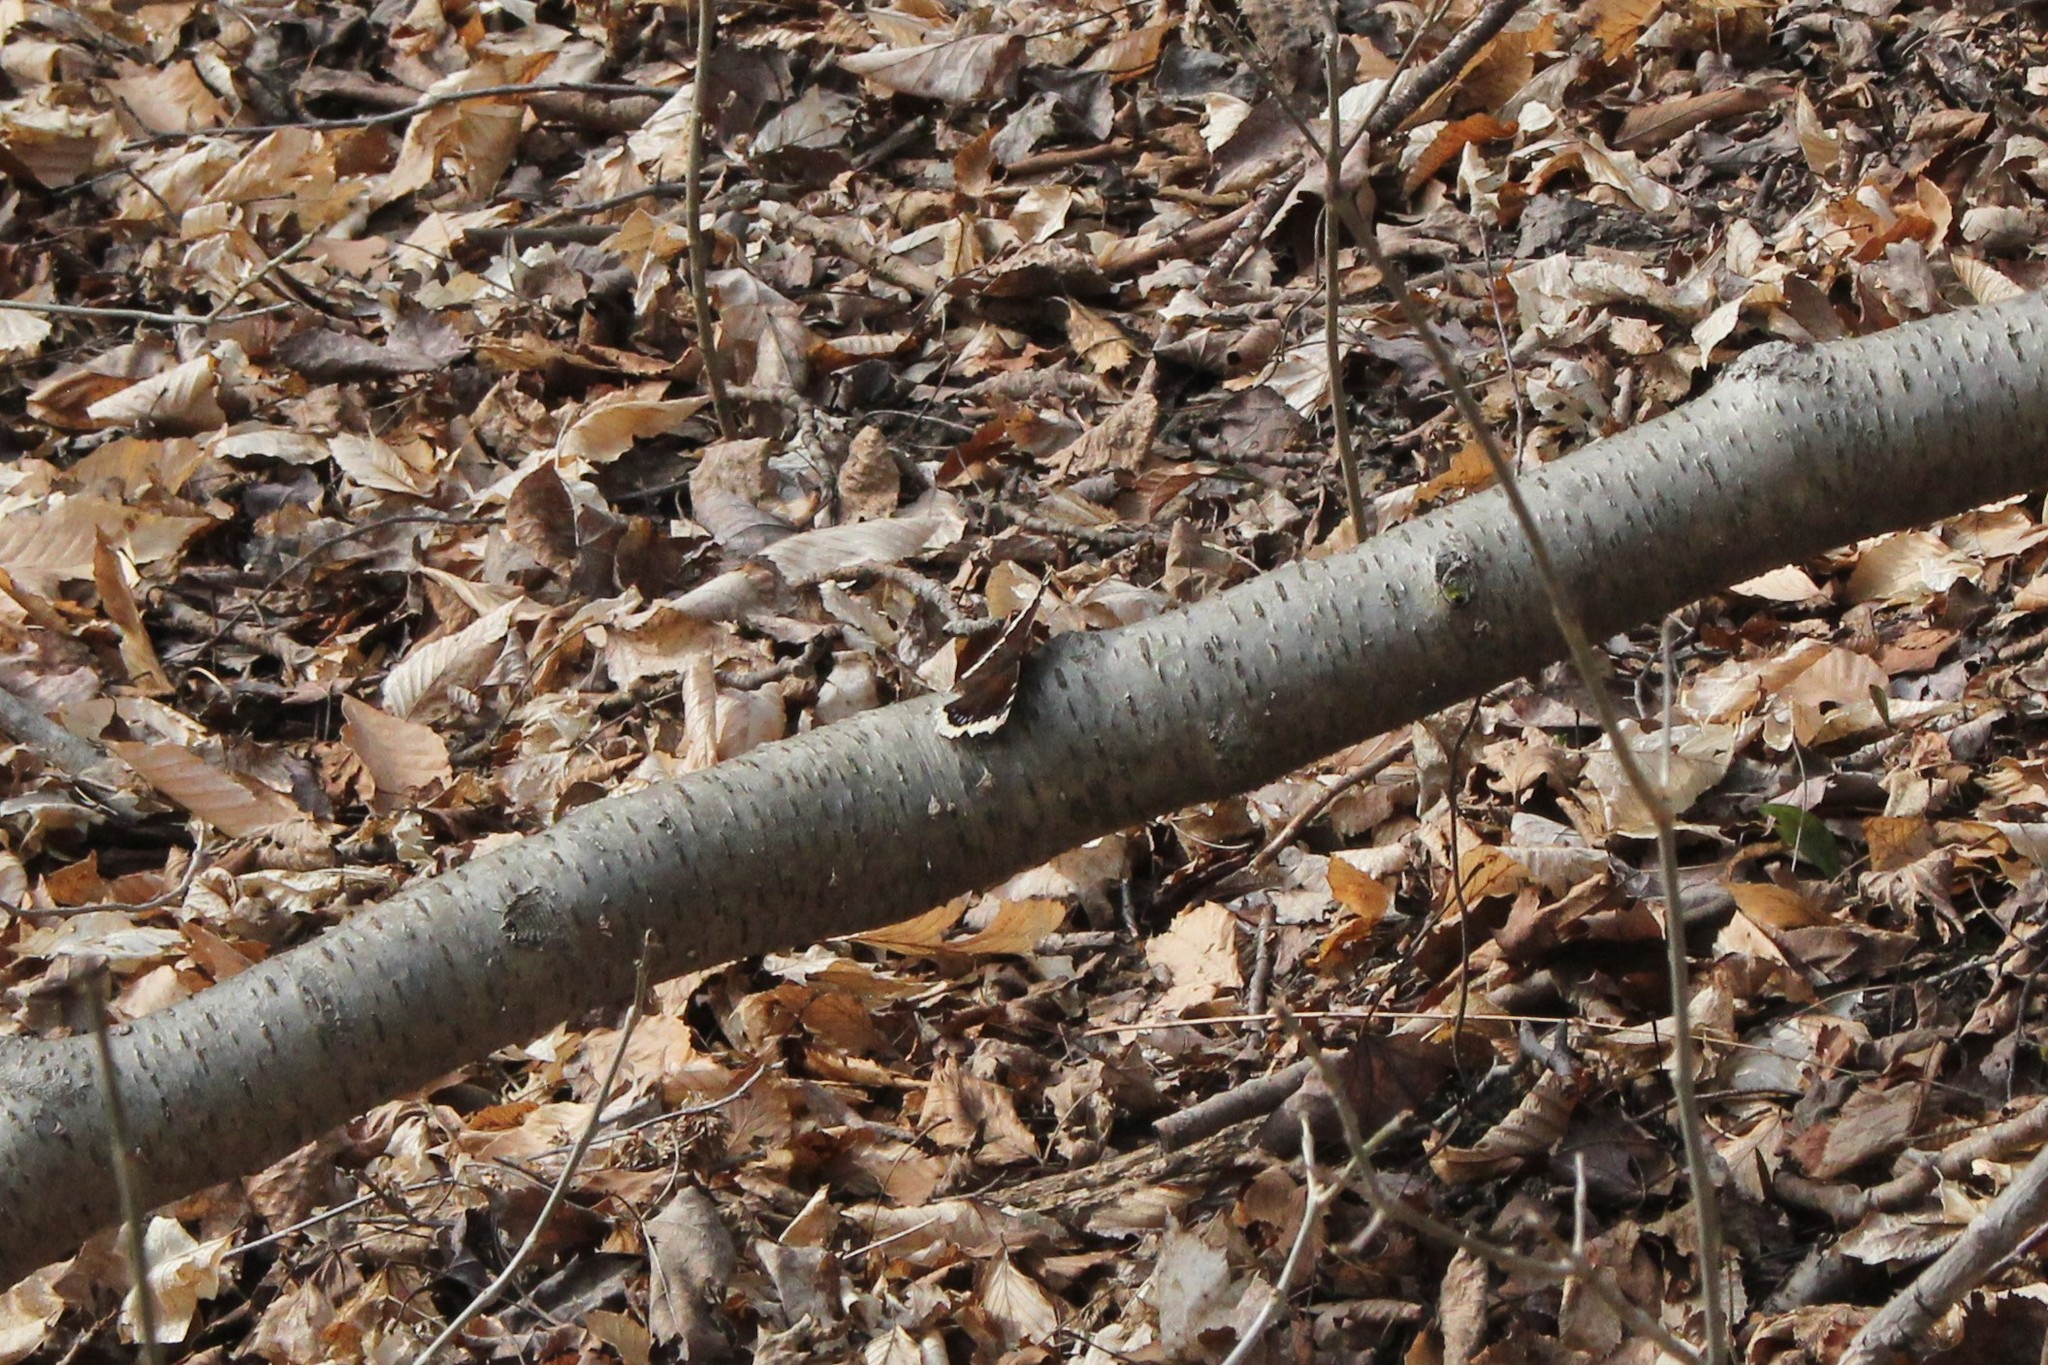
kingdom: Animalia
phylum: Arthropoda
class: Insecta
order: Lepidoptera
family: Nymphalidae
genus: Nymphalis
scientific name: Nymphalis antiopa
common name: Camberwell beauty
